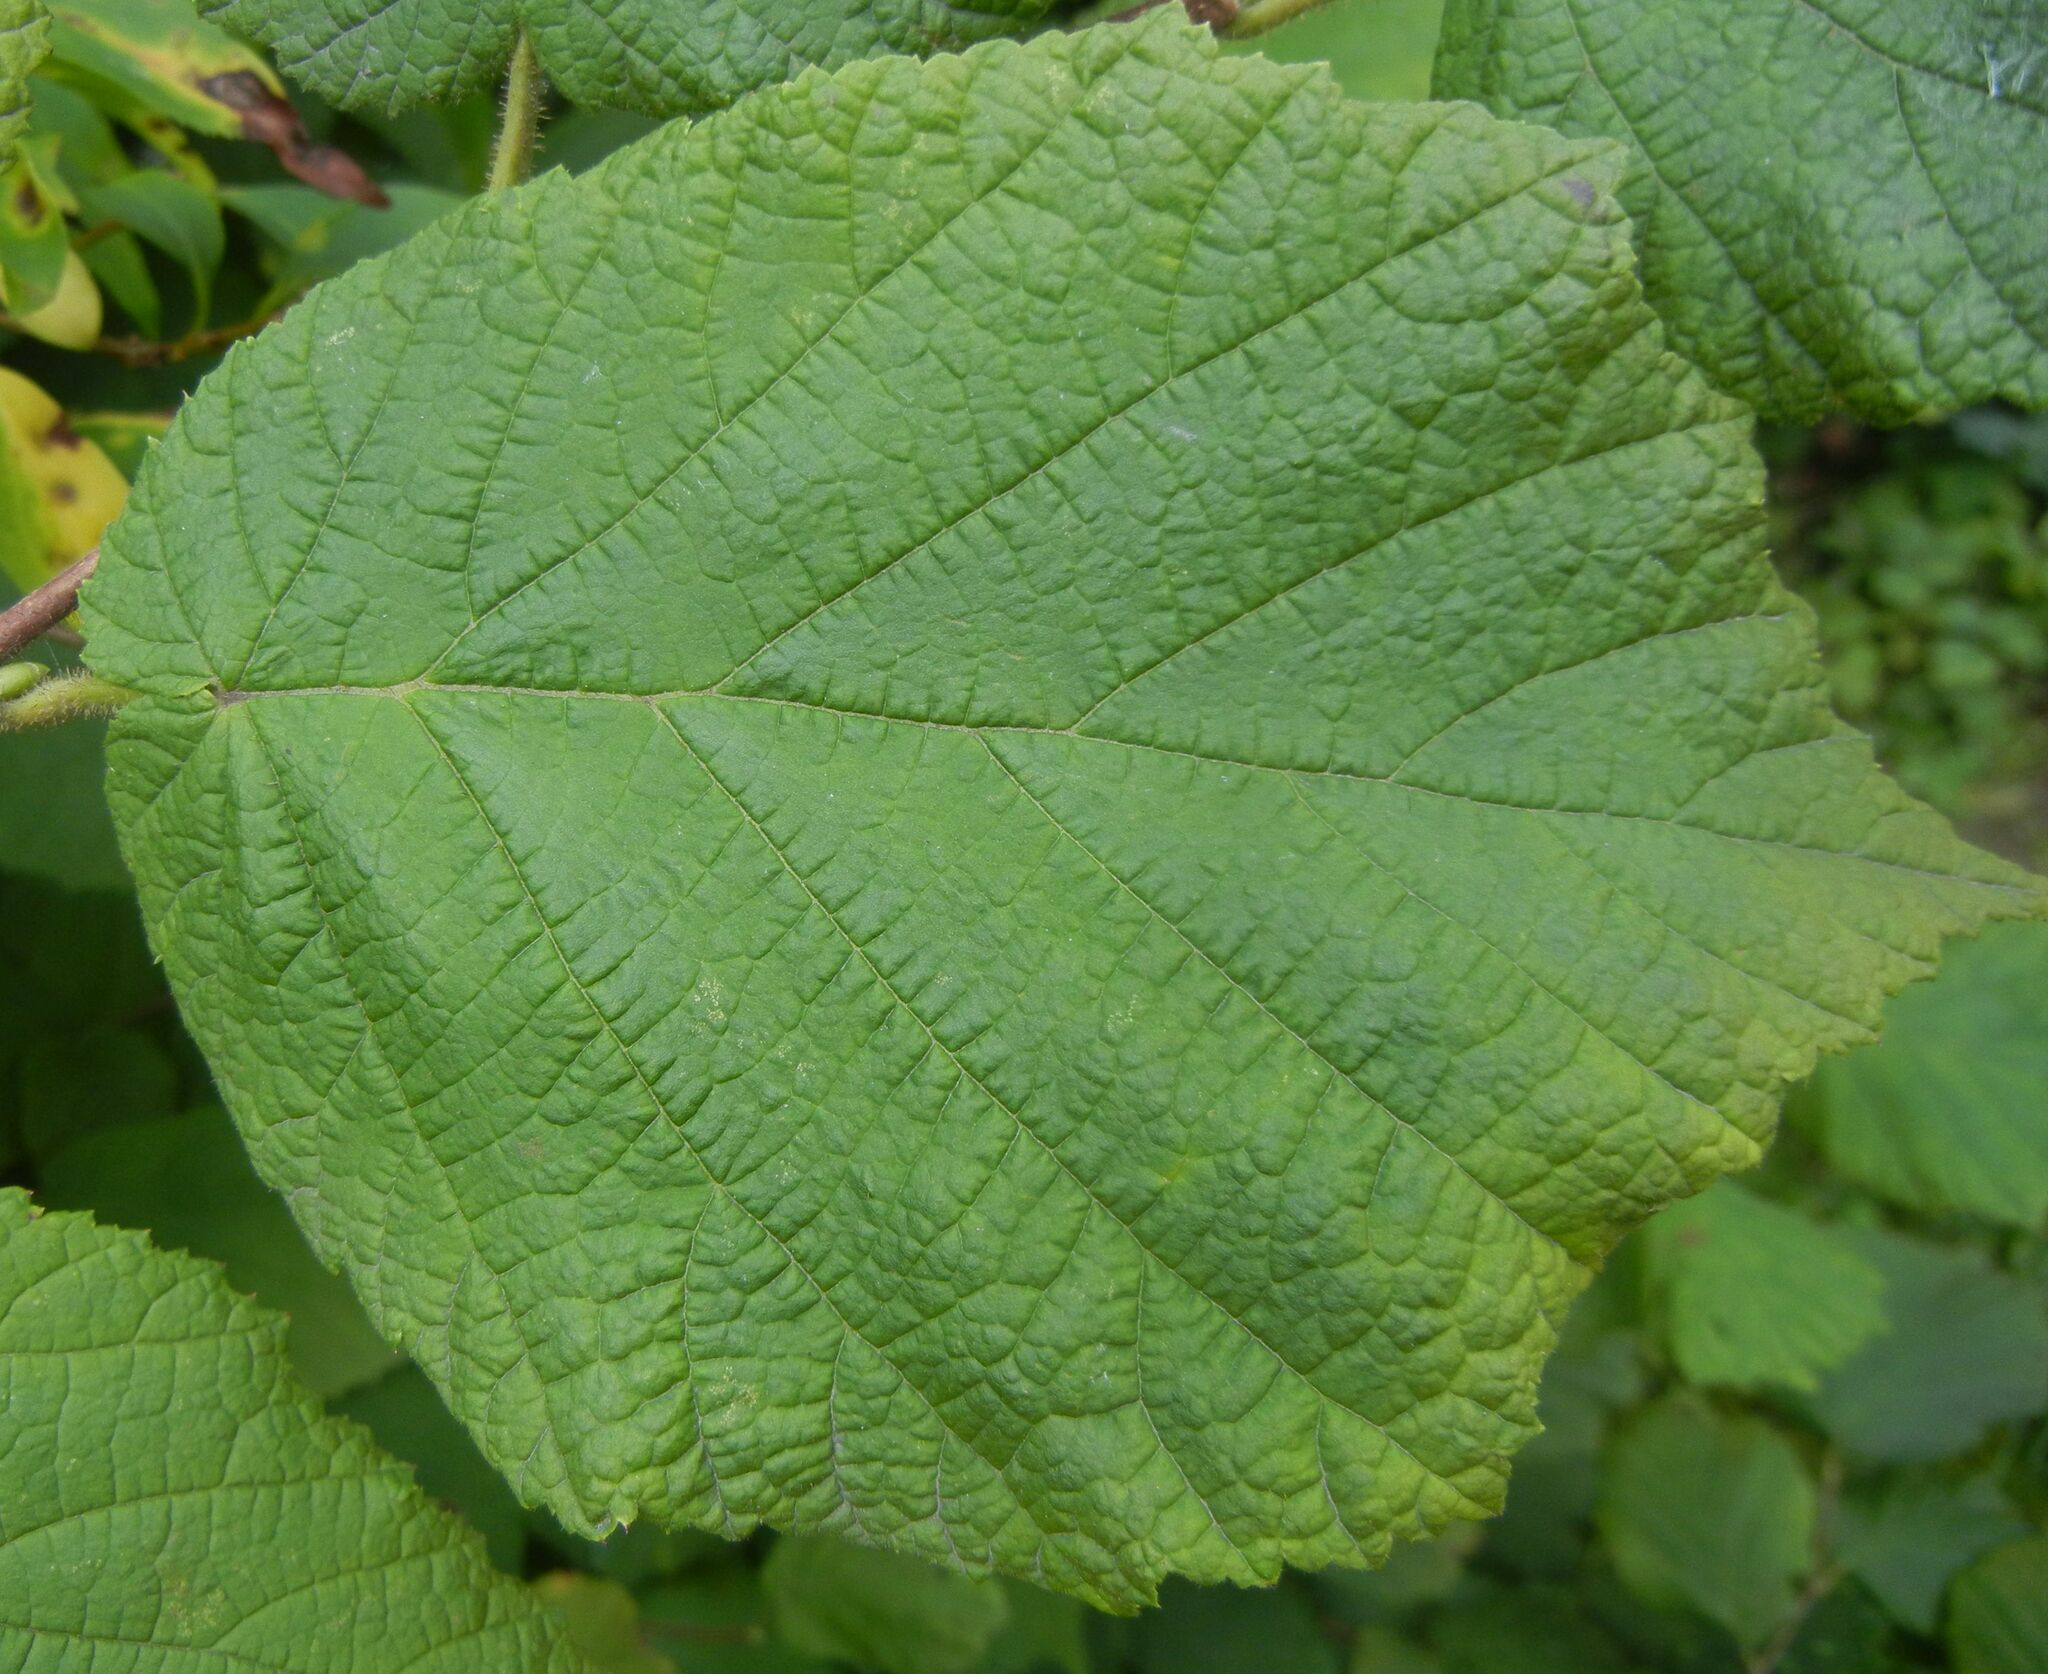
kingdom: Plantae
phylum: Tracheophyta
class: Magnoliopsida
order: Fagales
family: Betulaceae
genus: Corylus
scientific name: Corylus avellana
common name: European hazel
